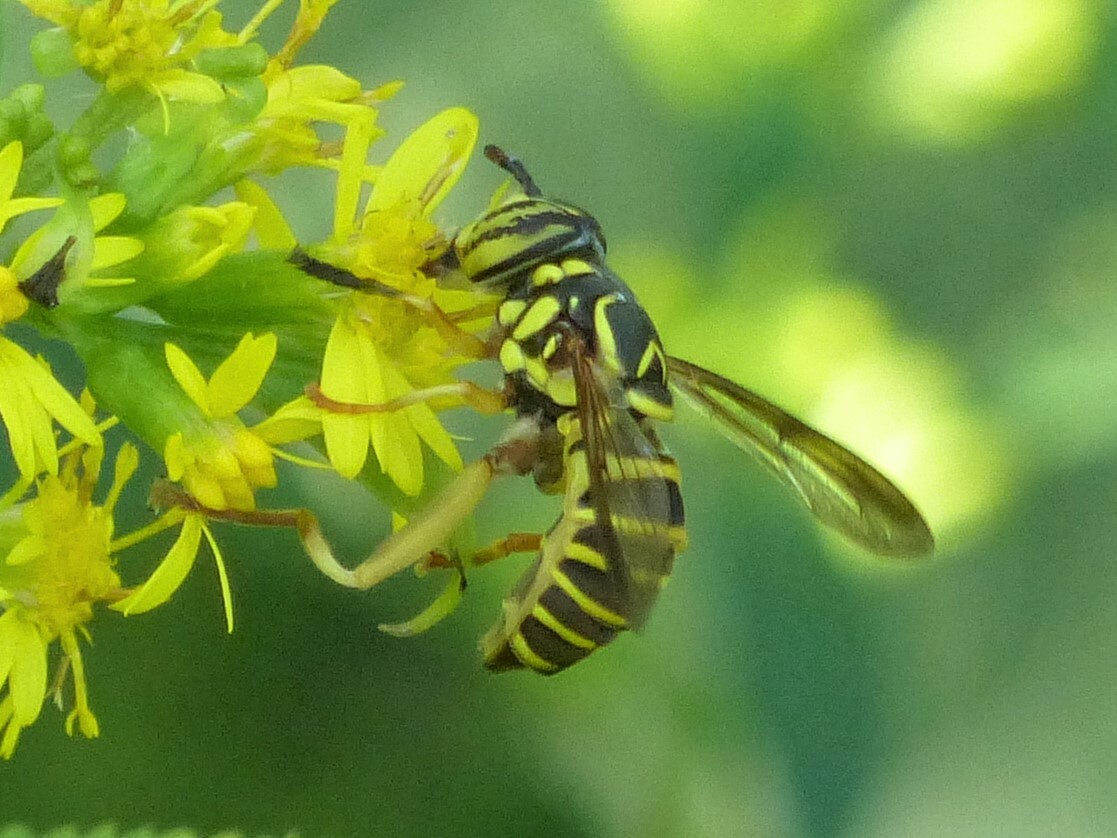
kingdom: Animalia
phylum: Arthropoda
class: Insecta
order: Diptera
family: Syrphidae
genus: Spilomyia
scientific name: Spilomyia longicornis
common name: Eastern hornet fly
